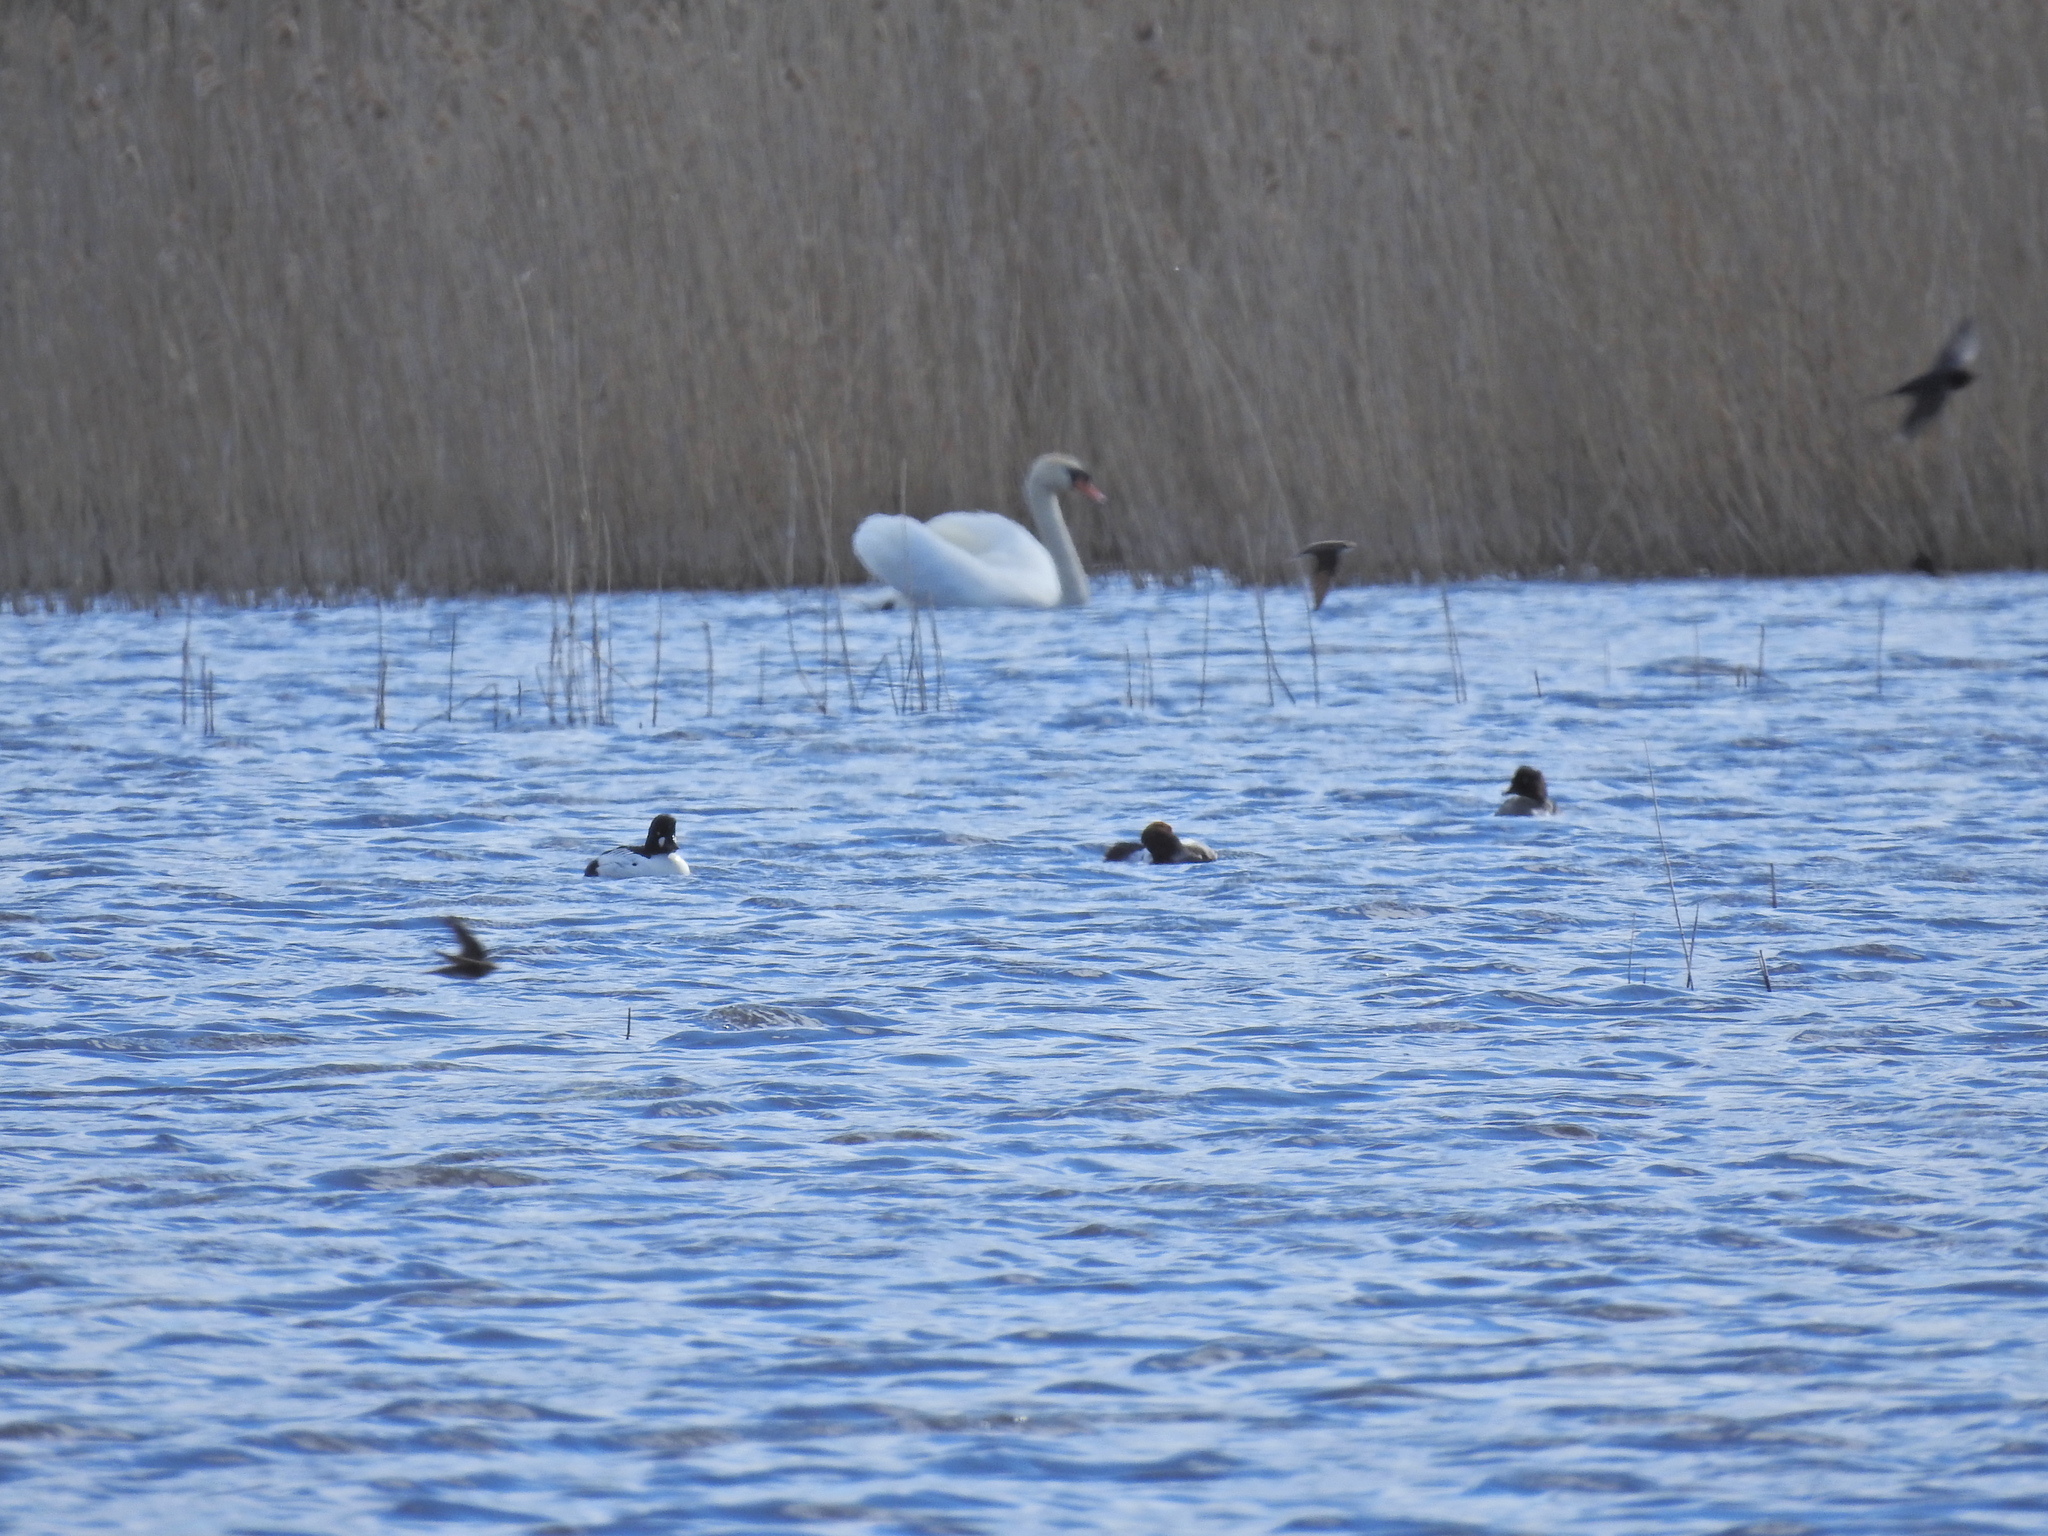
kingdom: Animalia
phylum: Chordata
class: Aves
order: Passeriformes
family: Hirundinidae
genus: Riparia
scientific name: Riparia riparia
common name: Sand martin
